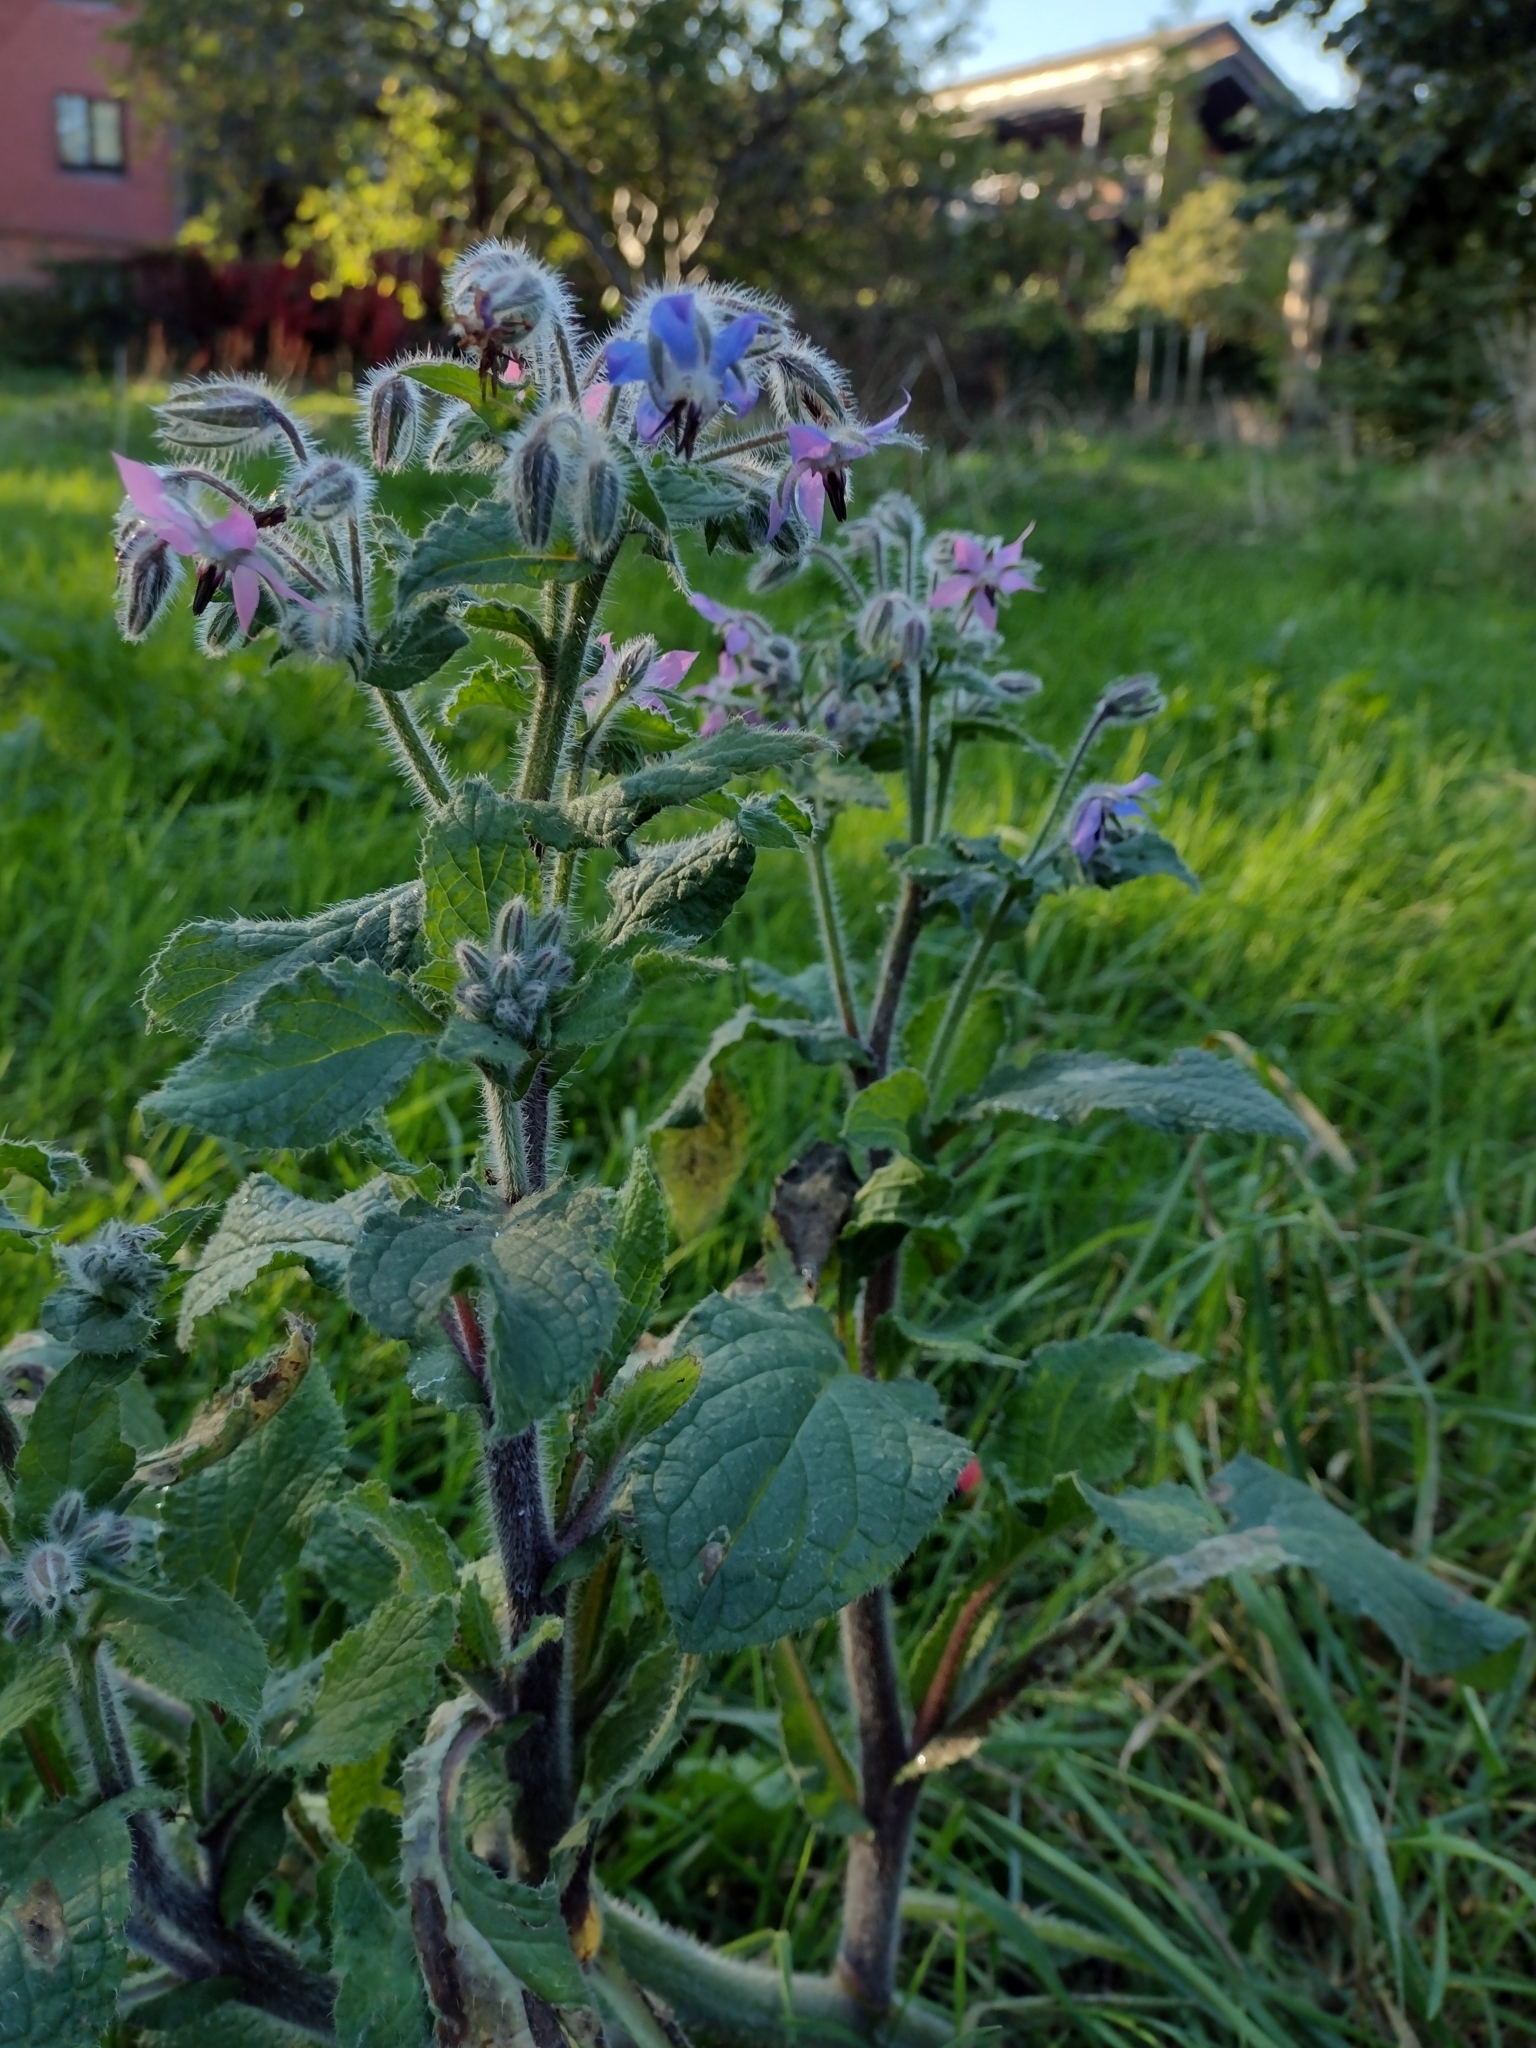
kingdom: Plantae
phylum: Tracheophyta
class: Magnoliopsida
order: Boraginales
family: Boraginaceae
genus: Borago
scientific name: Borago officinalis
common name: Borage
